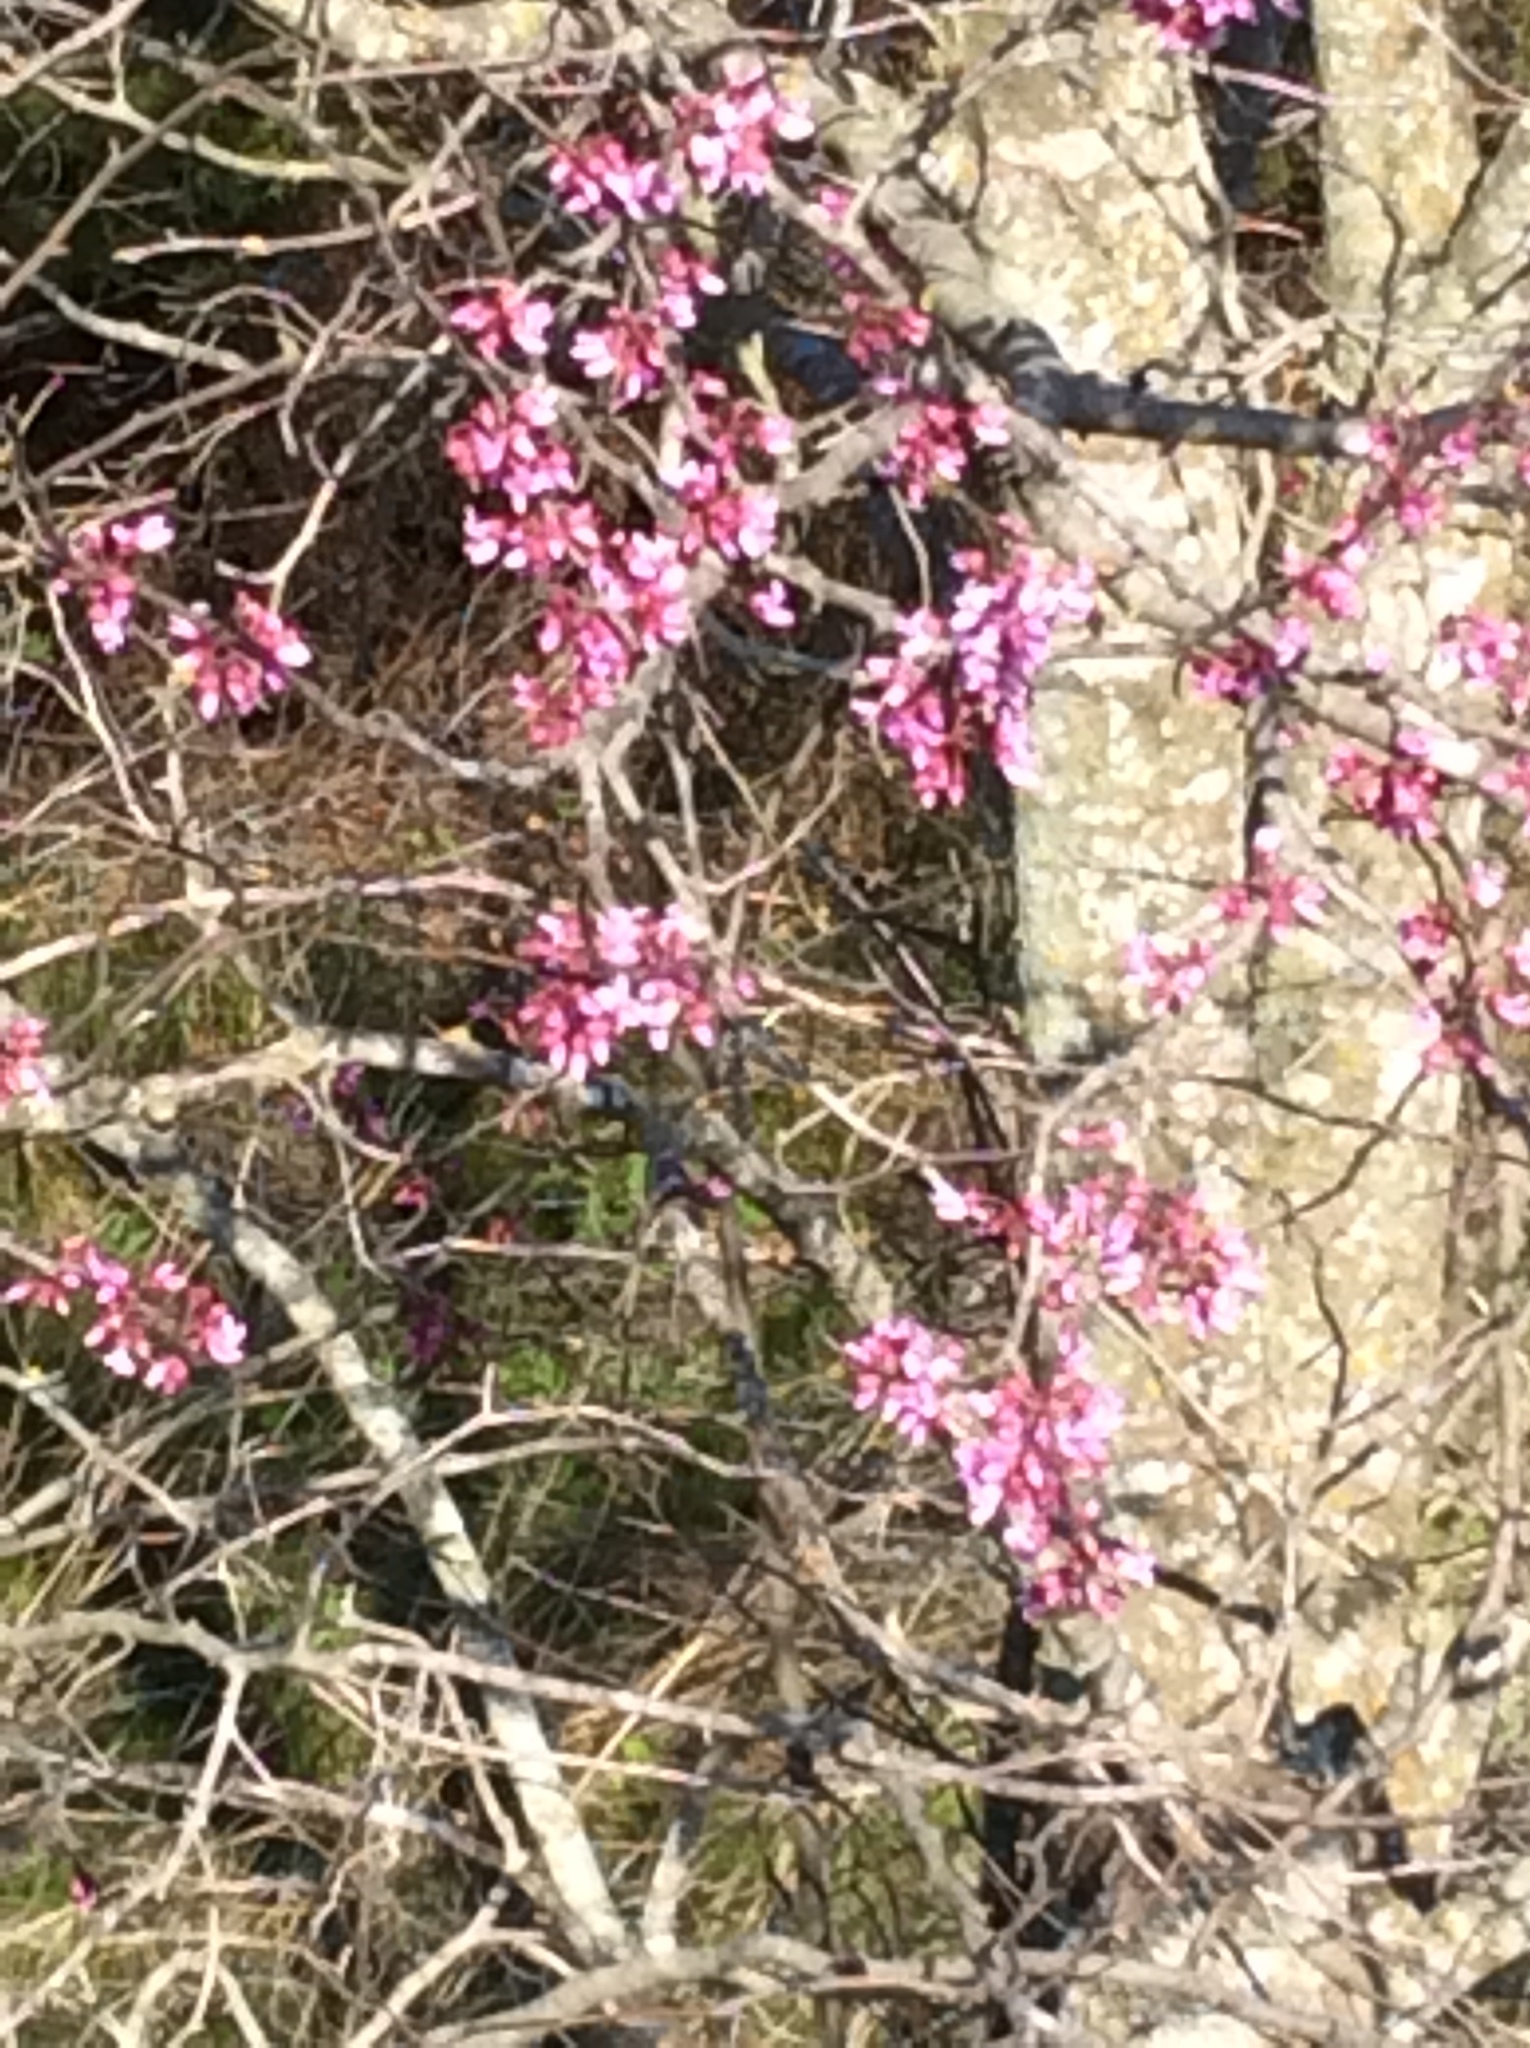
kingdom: Plantae
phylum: Tracheophyta
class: Magnoliopsida
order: Fabales
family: Fabaceae
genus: Cercis
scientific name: Cercis canadensis
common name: Eastern redbud
